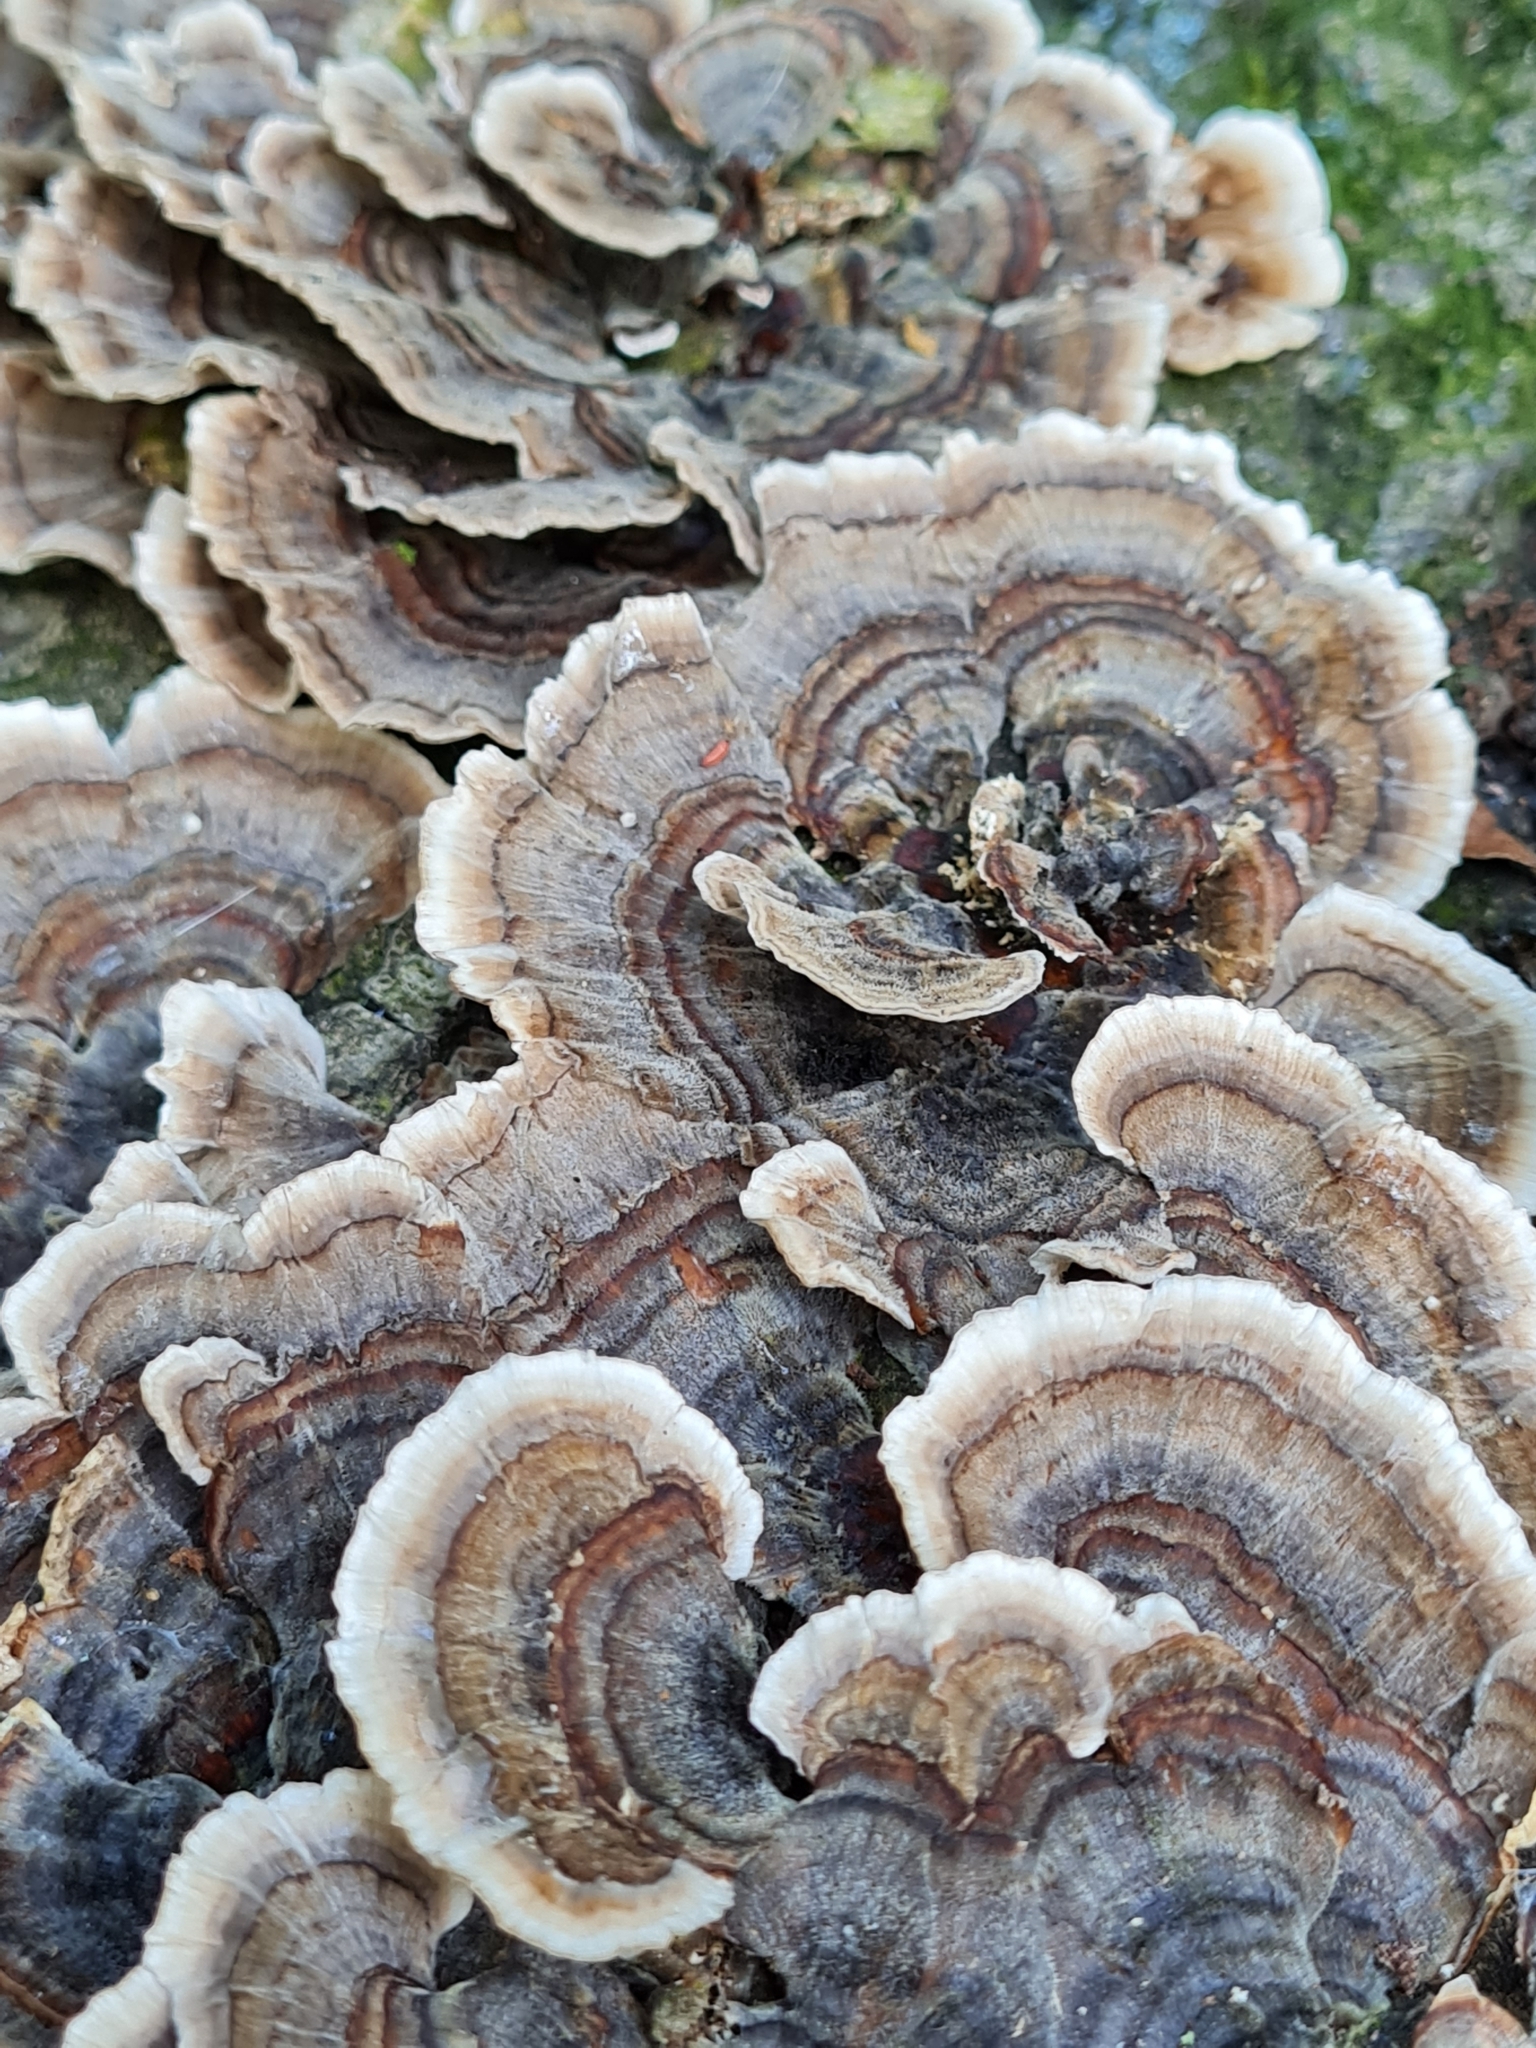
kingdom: Fungi
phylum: Basidiomycota
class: Agaricomycetes
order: Polyporales
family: Polyporaceae
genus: Trametes
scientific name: Trametes versicolor
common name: Turkeytail
